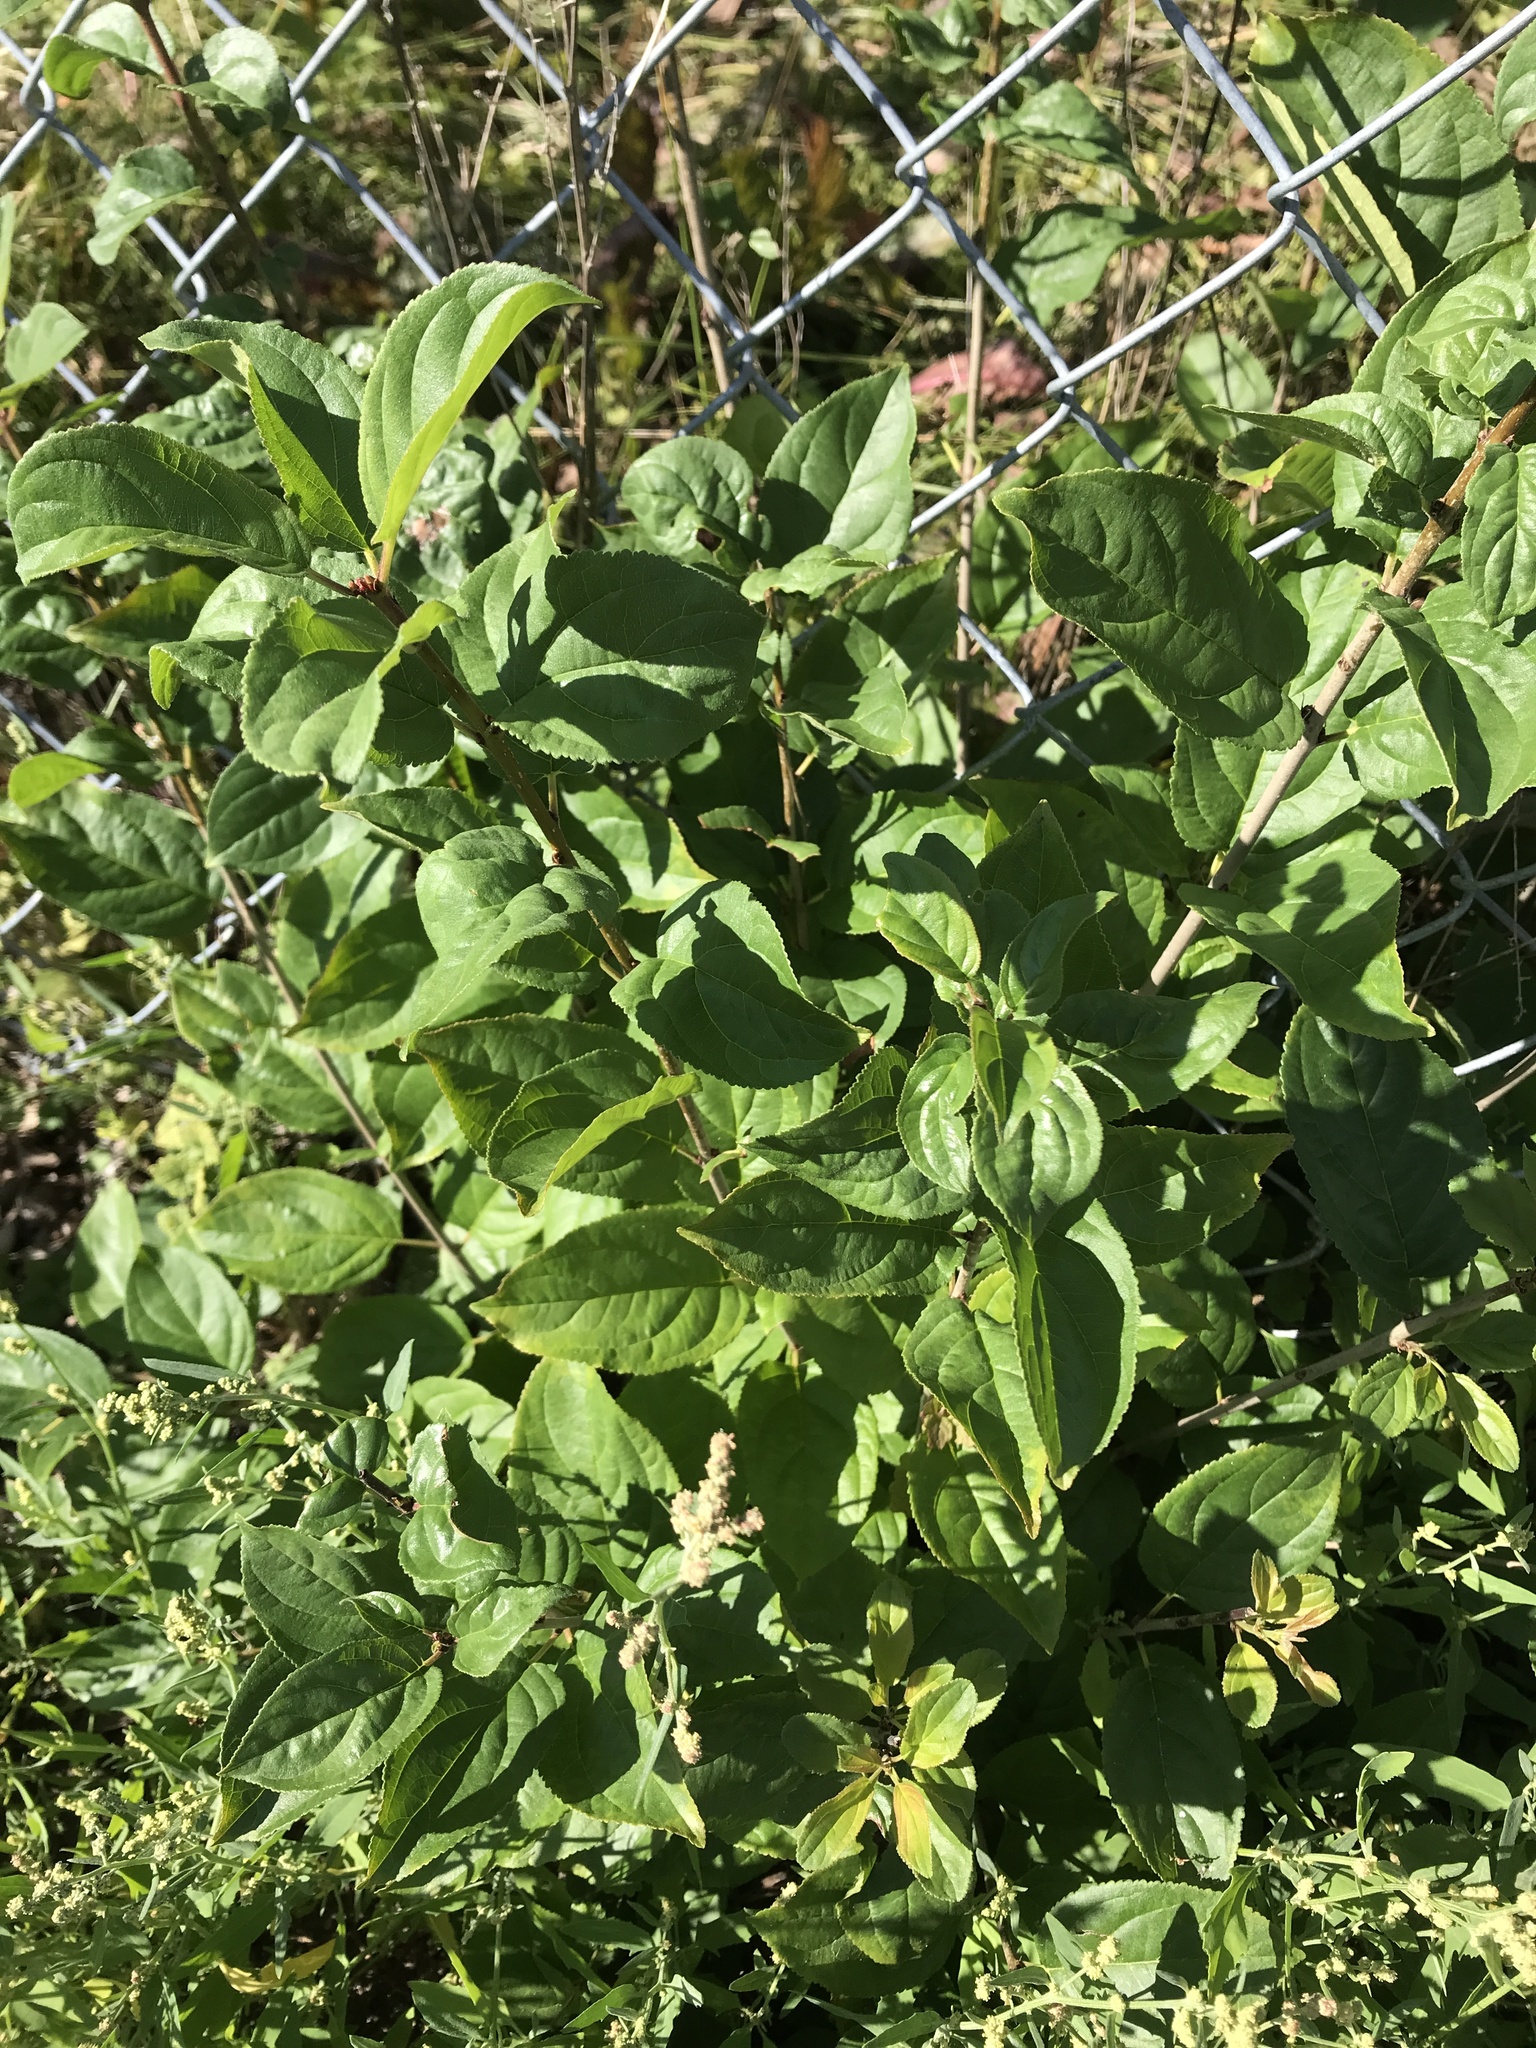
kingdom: Plantae
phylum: Tracheophyta
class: Magnoliopsida
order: Rosales
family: Rhamnaceae
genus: Rhamnus
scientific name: Rhamnus cathartica
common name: Common buckthorn
